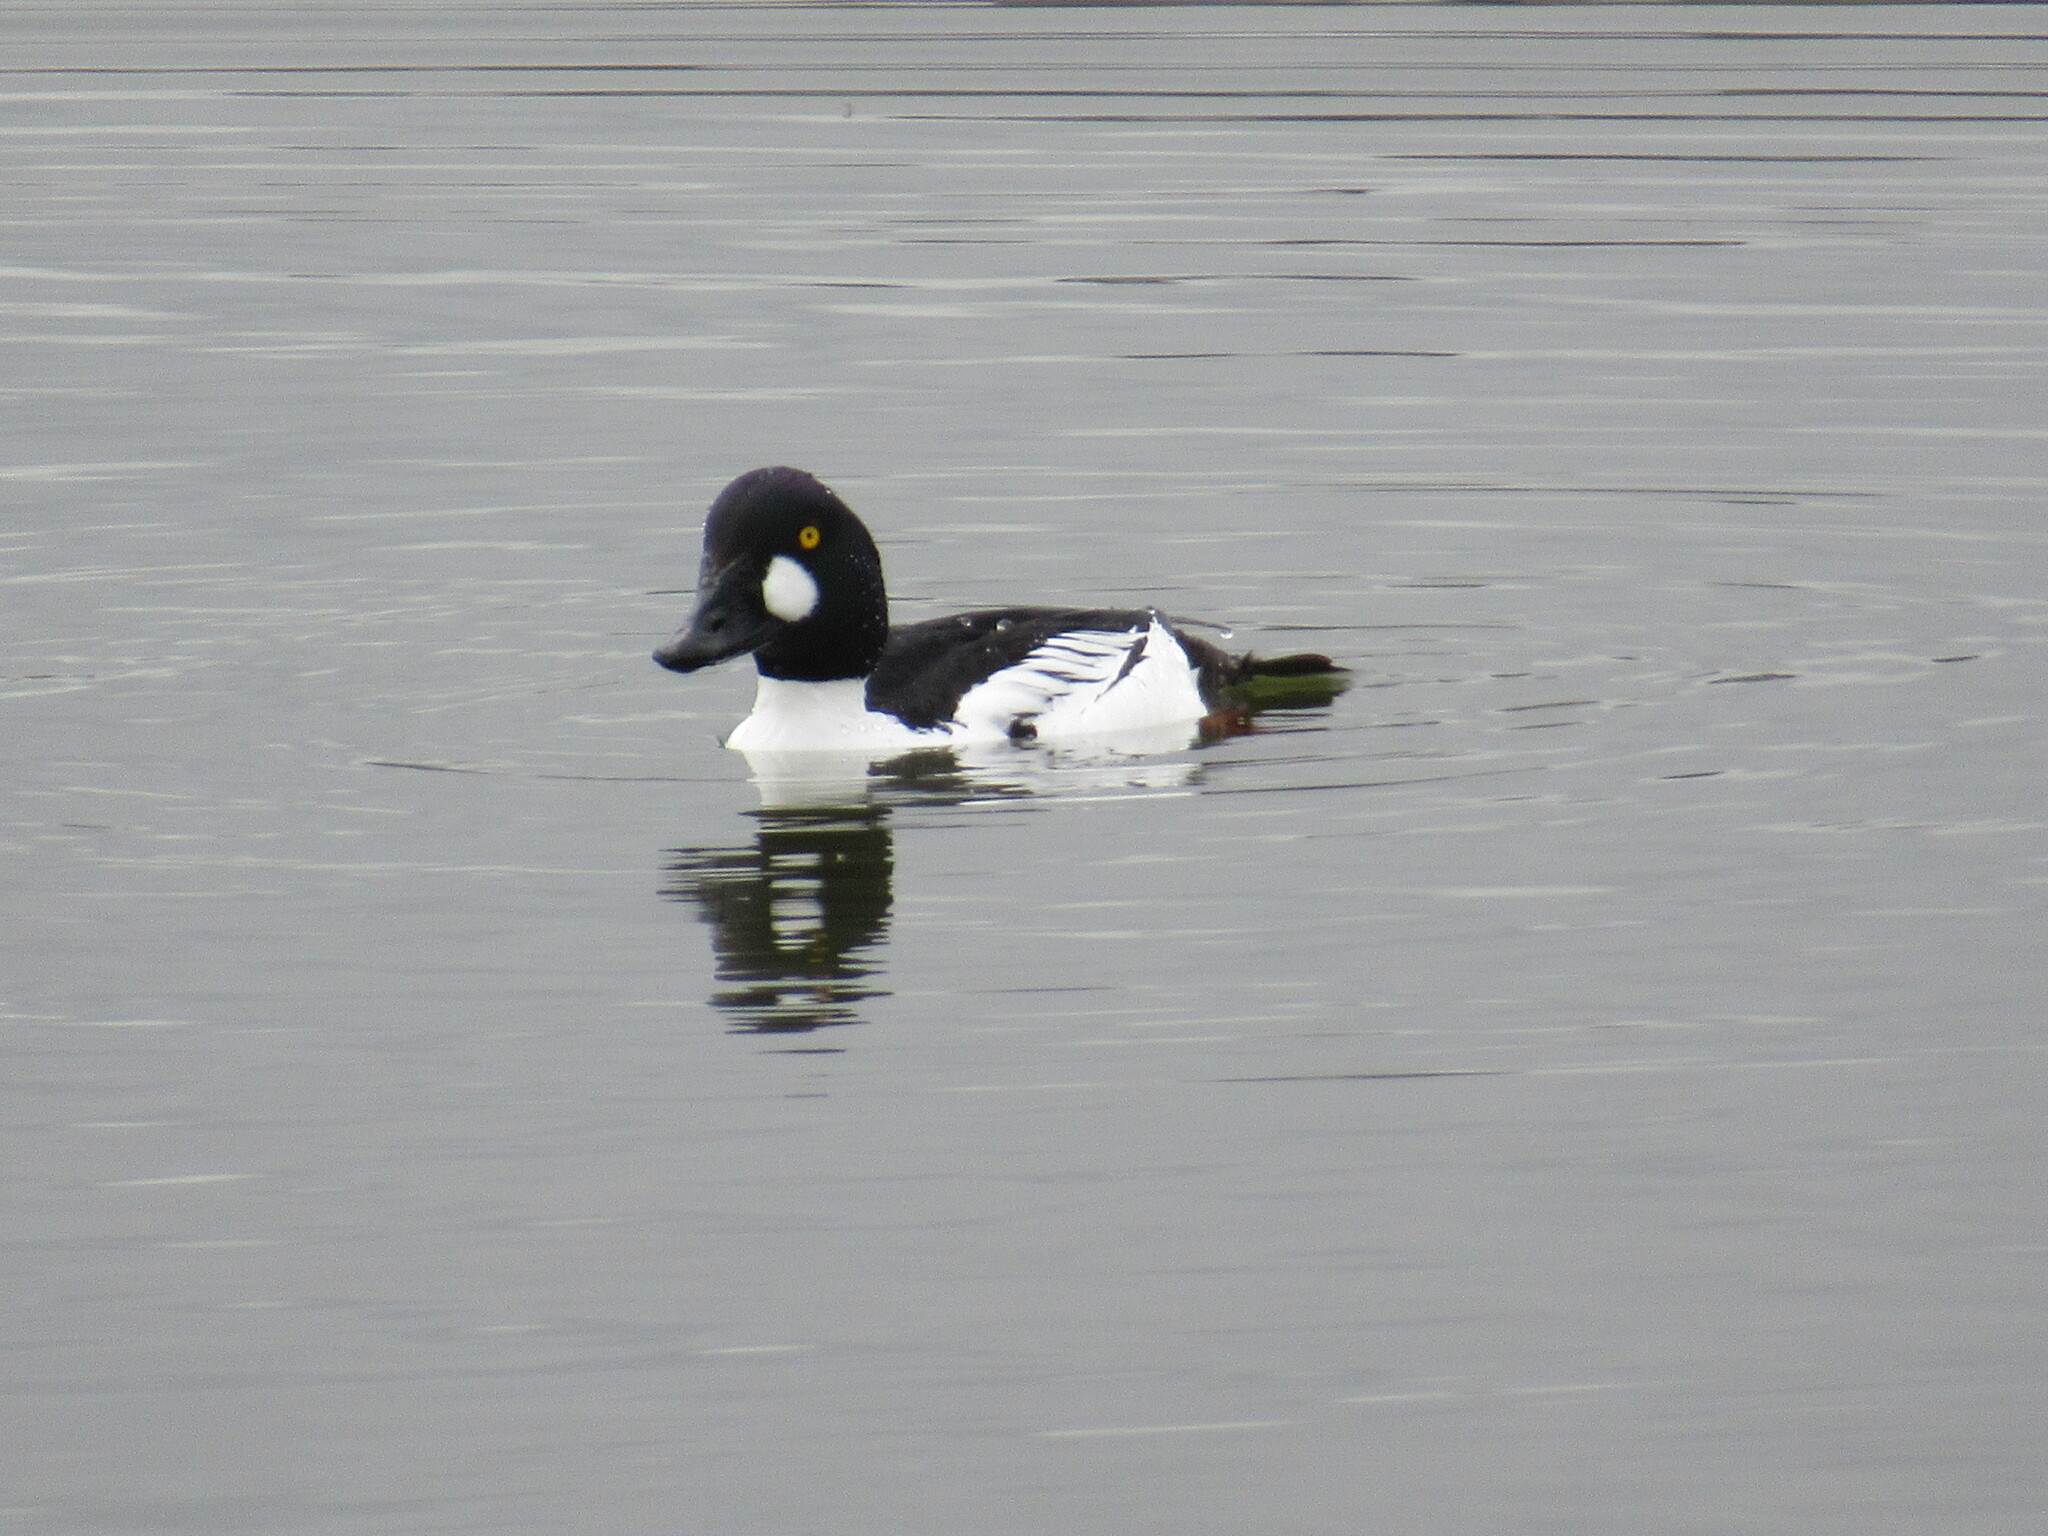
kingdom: Animalia
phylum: Chordata
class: Aves
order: Anseriformes
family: Anatidae
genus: Bucephala
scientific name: Bucephala clangula
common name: Common goldeneye
